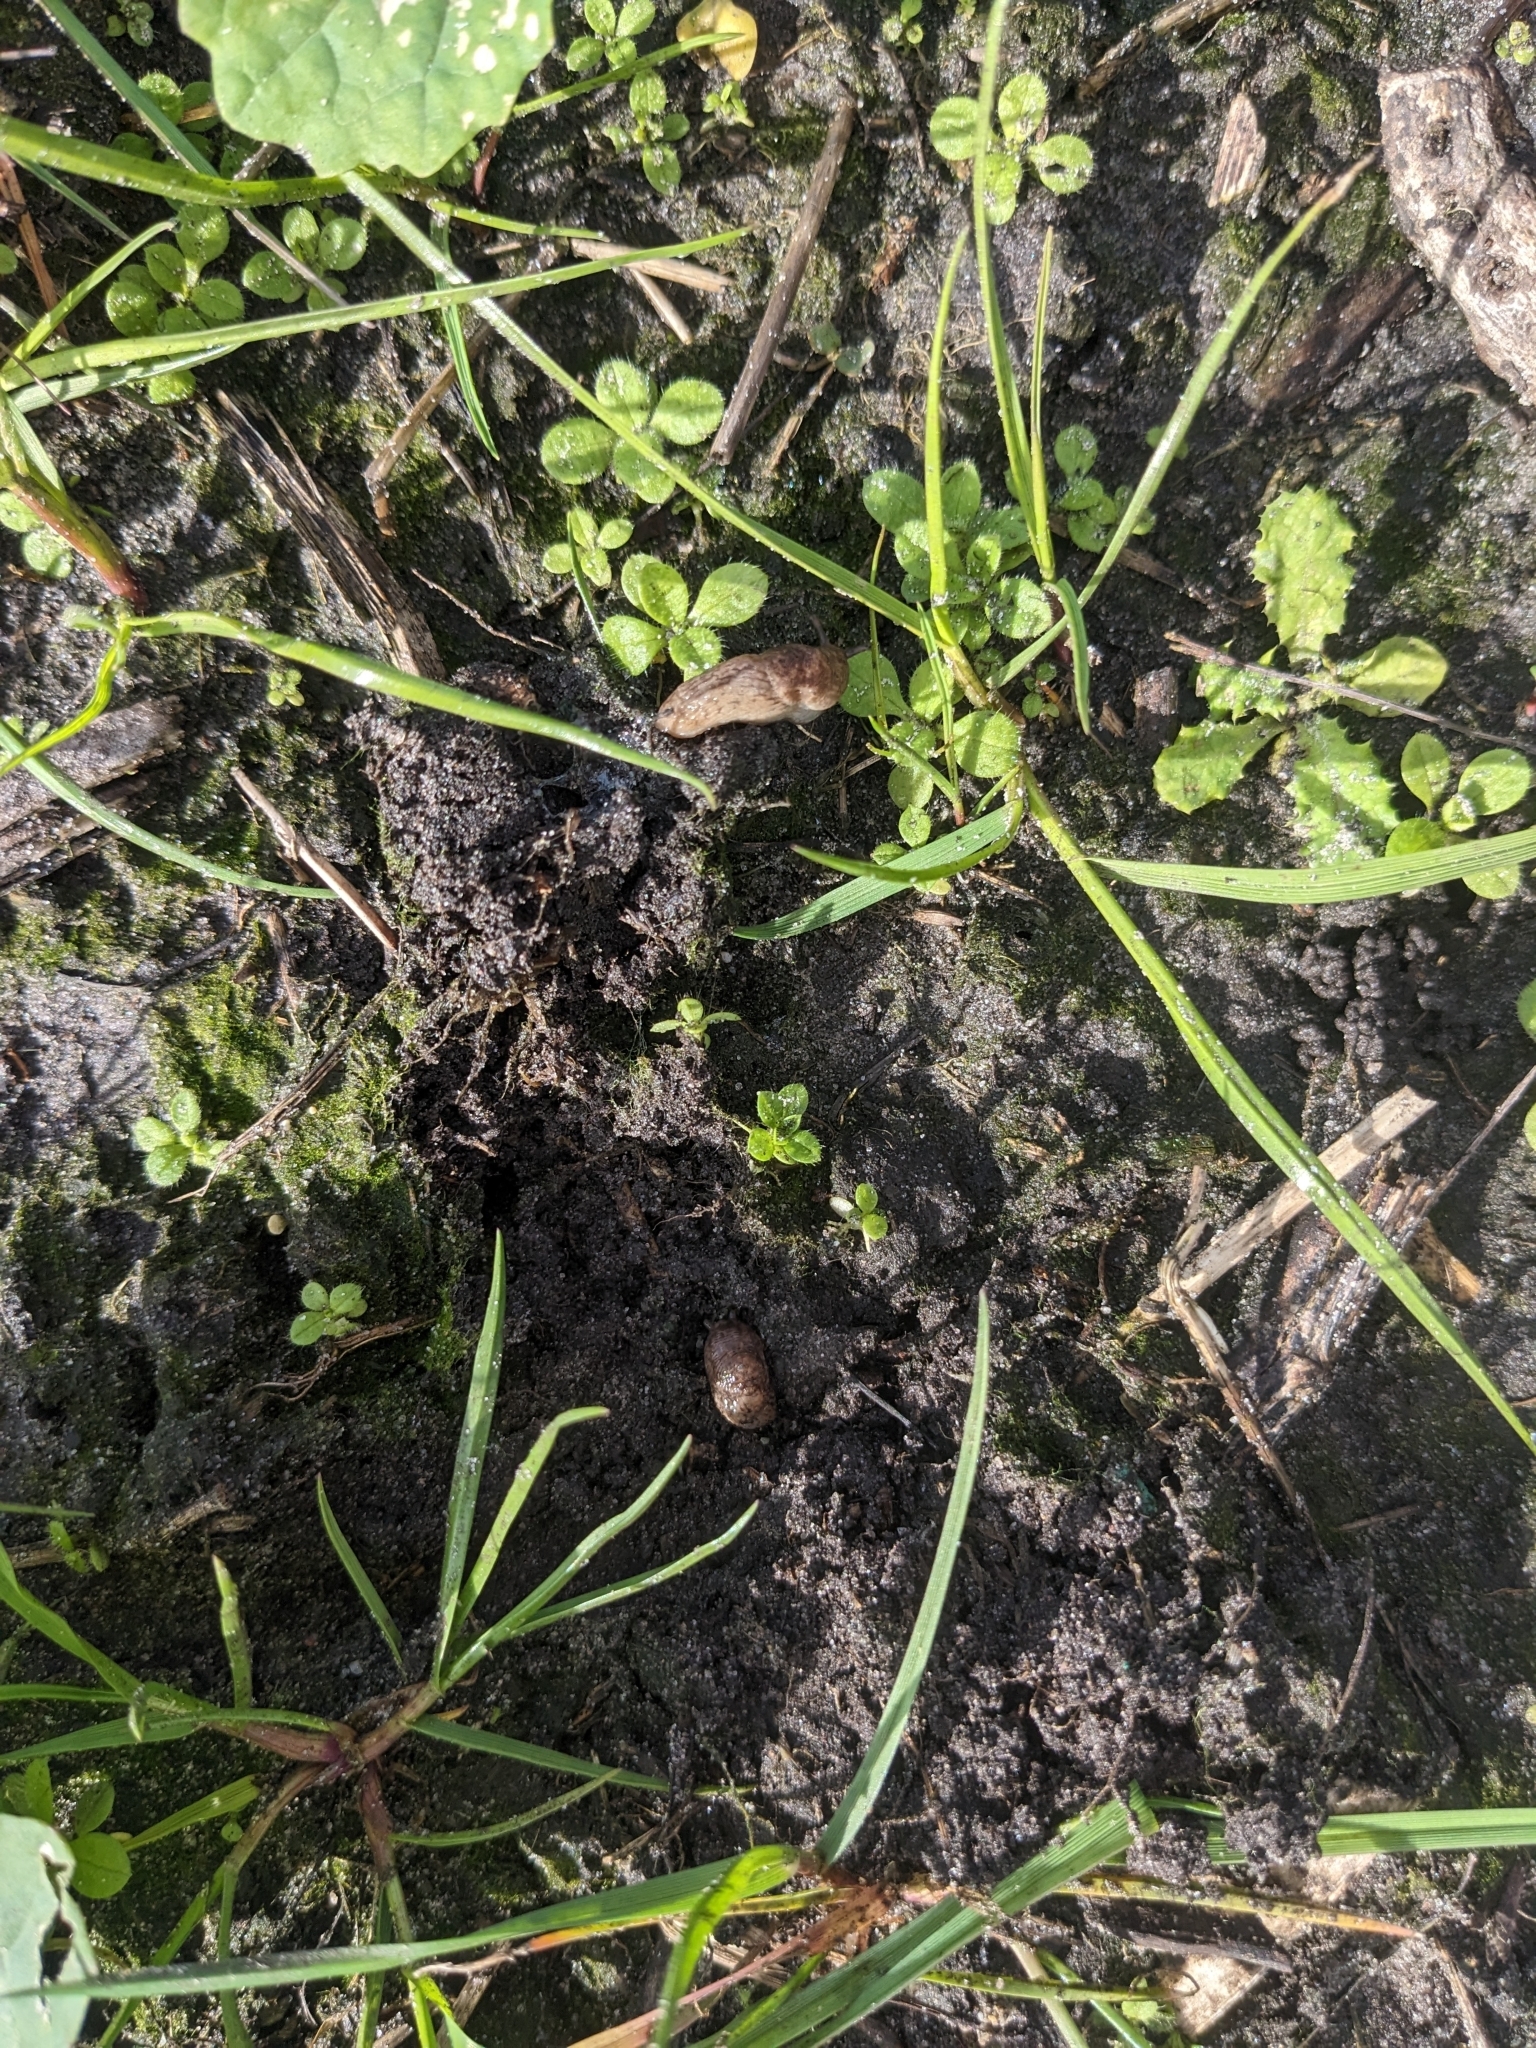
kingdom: Animalia
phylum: Mollusca
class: Gastropoda
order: Stylommatophora
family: Agriolimacidae
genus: Deroceras
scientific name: Deroceras reticulatum
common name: Gray field slug
